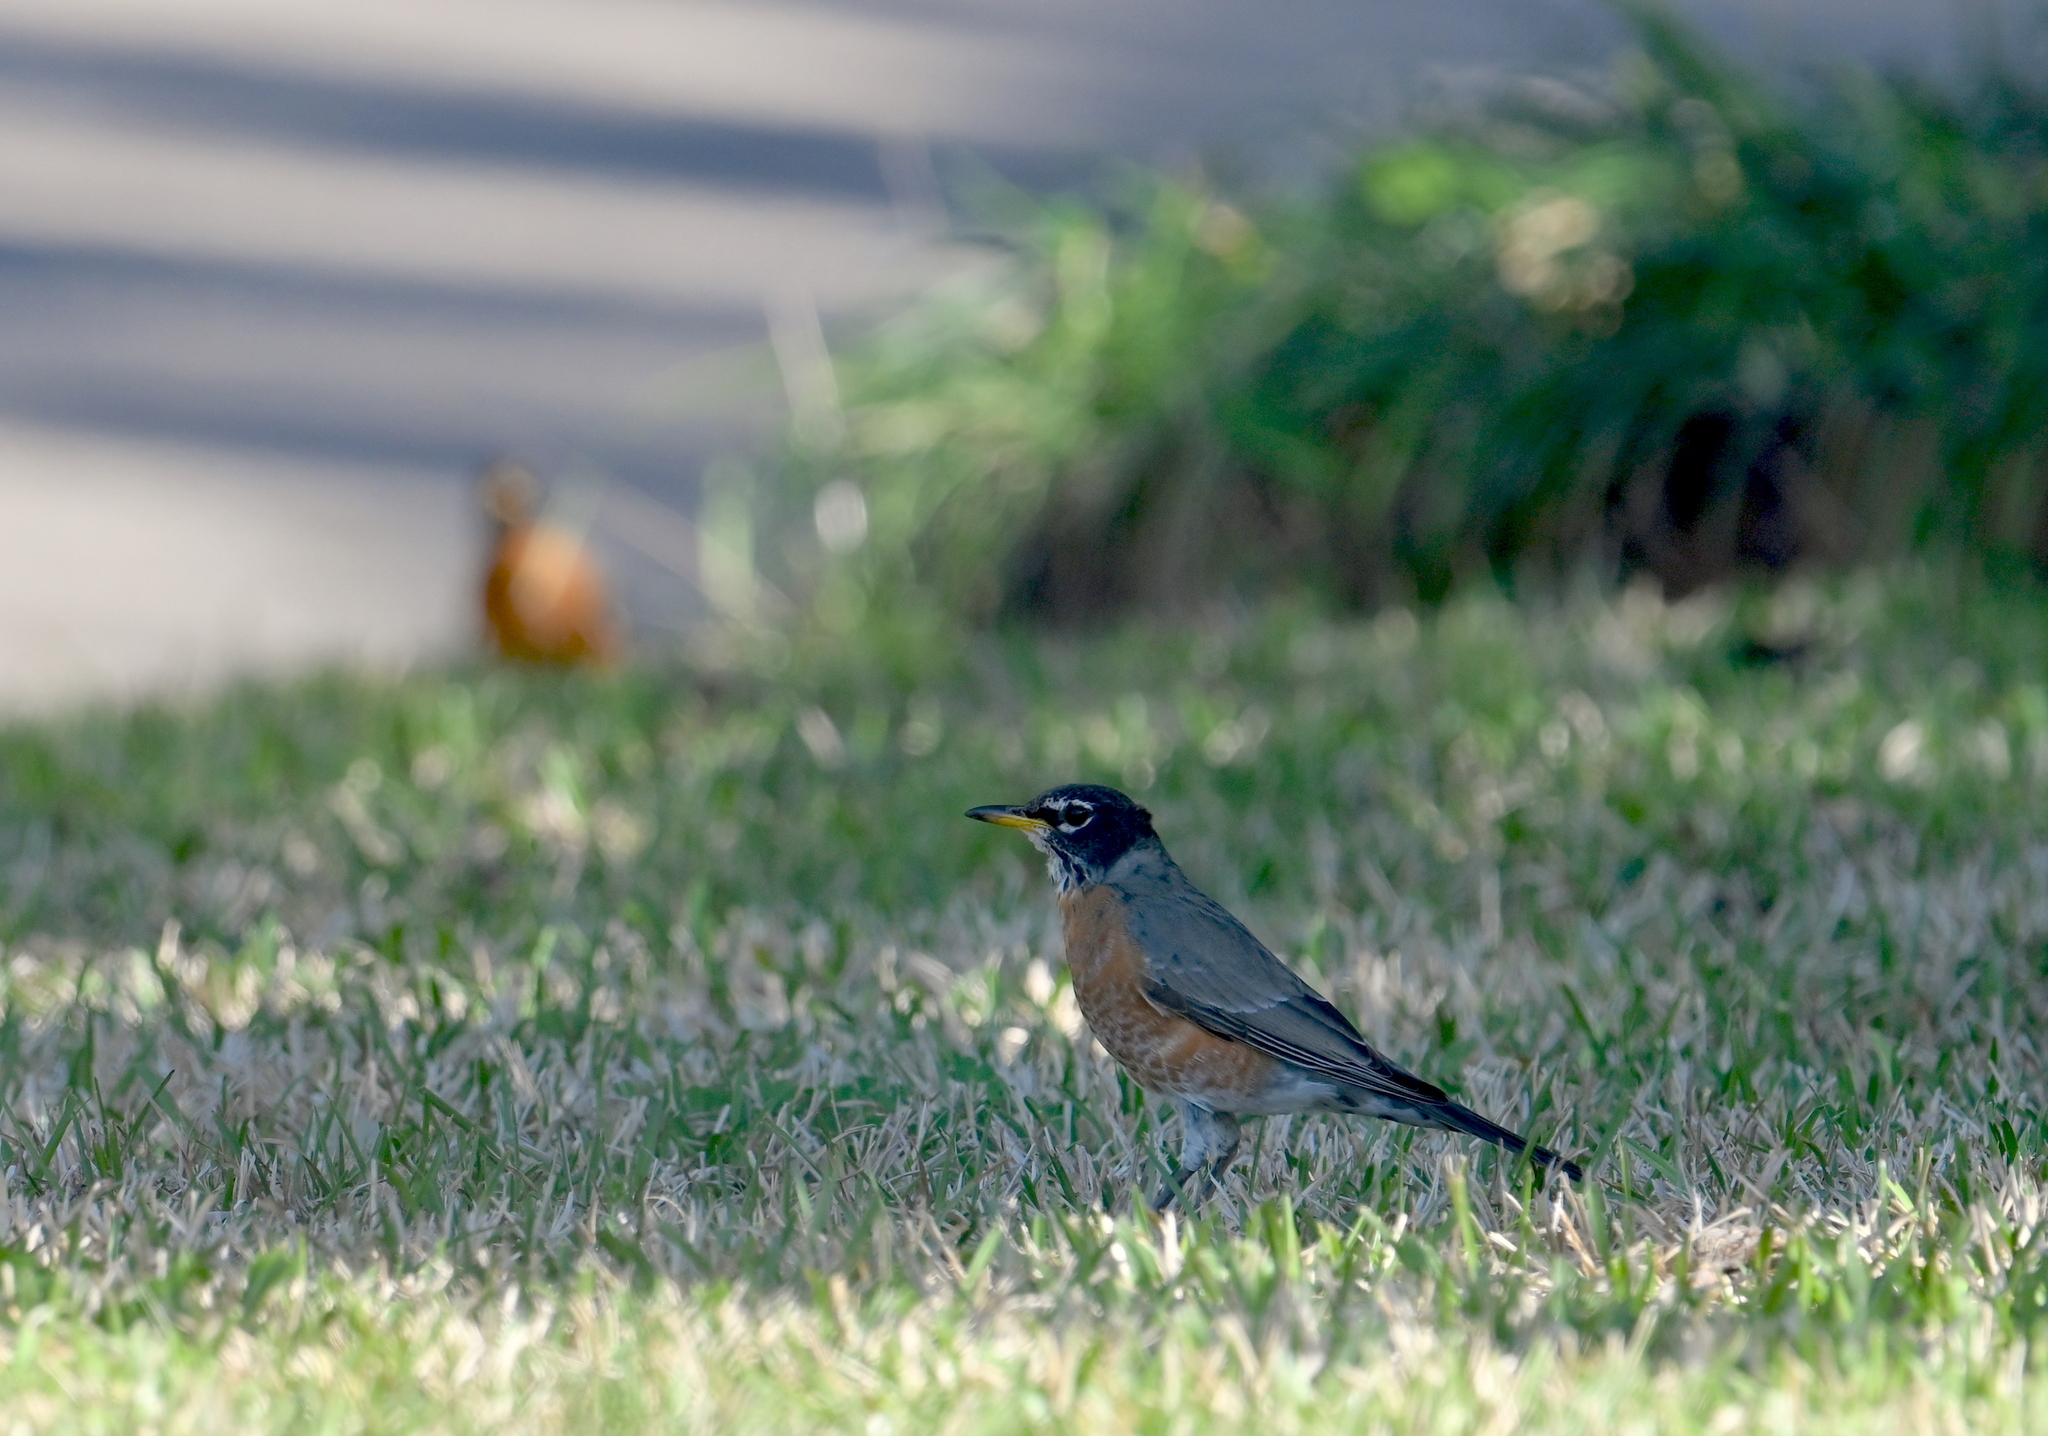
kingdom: Animalia
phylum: Chordata
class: Aves
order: Passeriformes
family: Turdidae
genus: Turdus
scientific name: Turdus migratorius
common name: American robin
